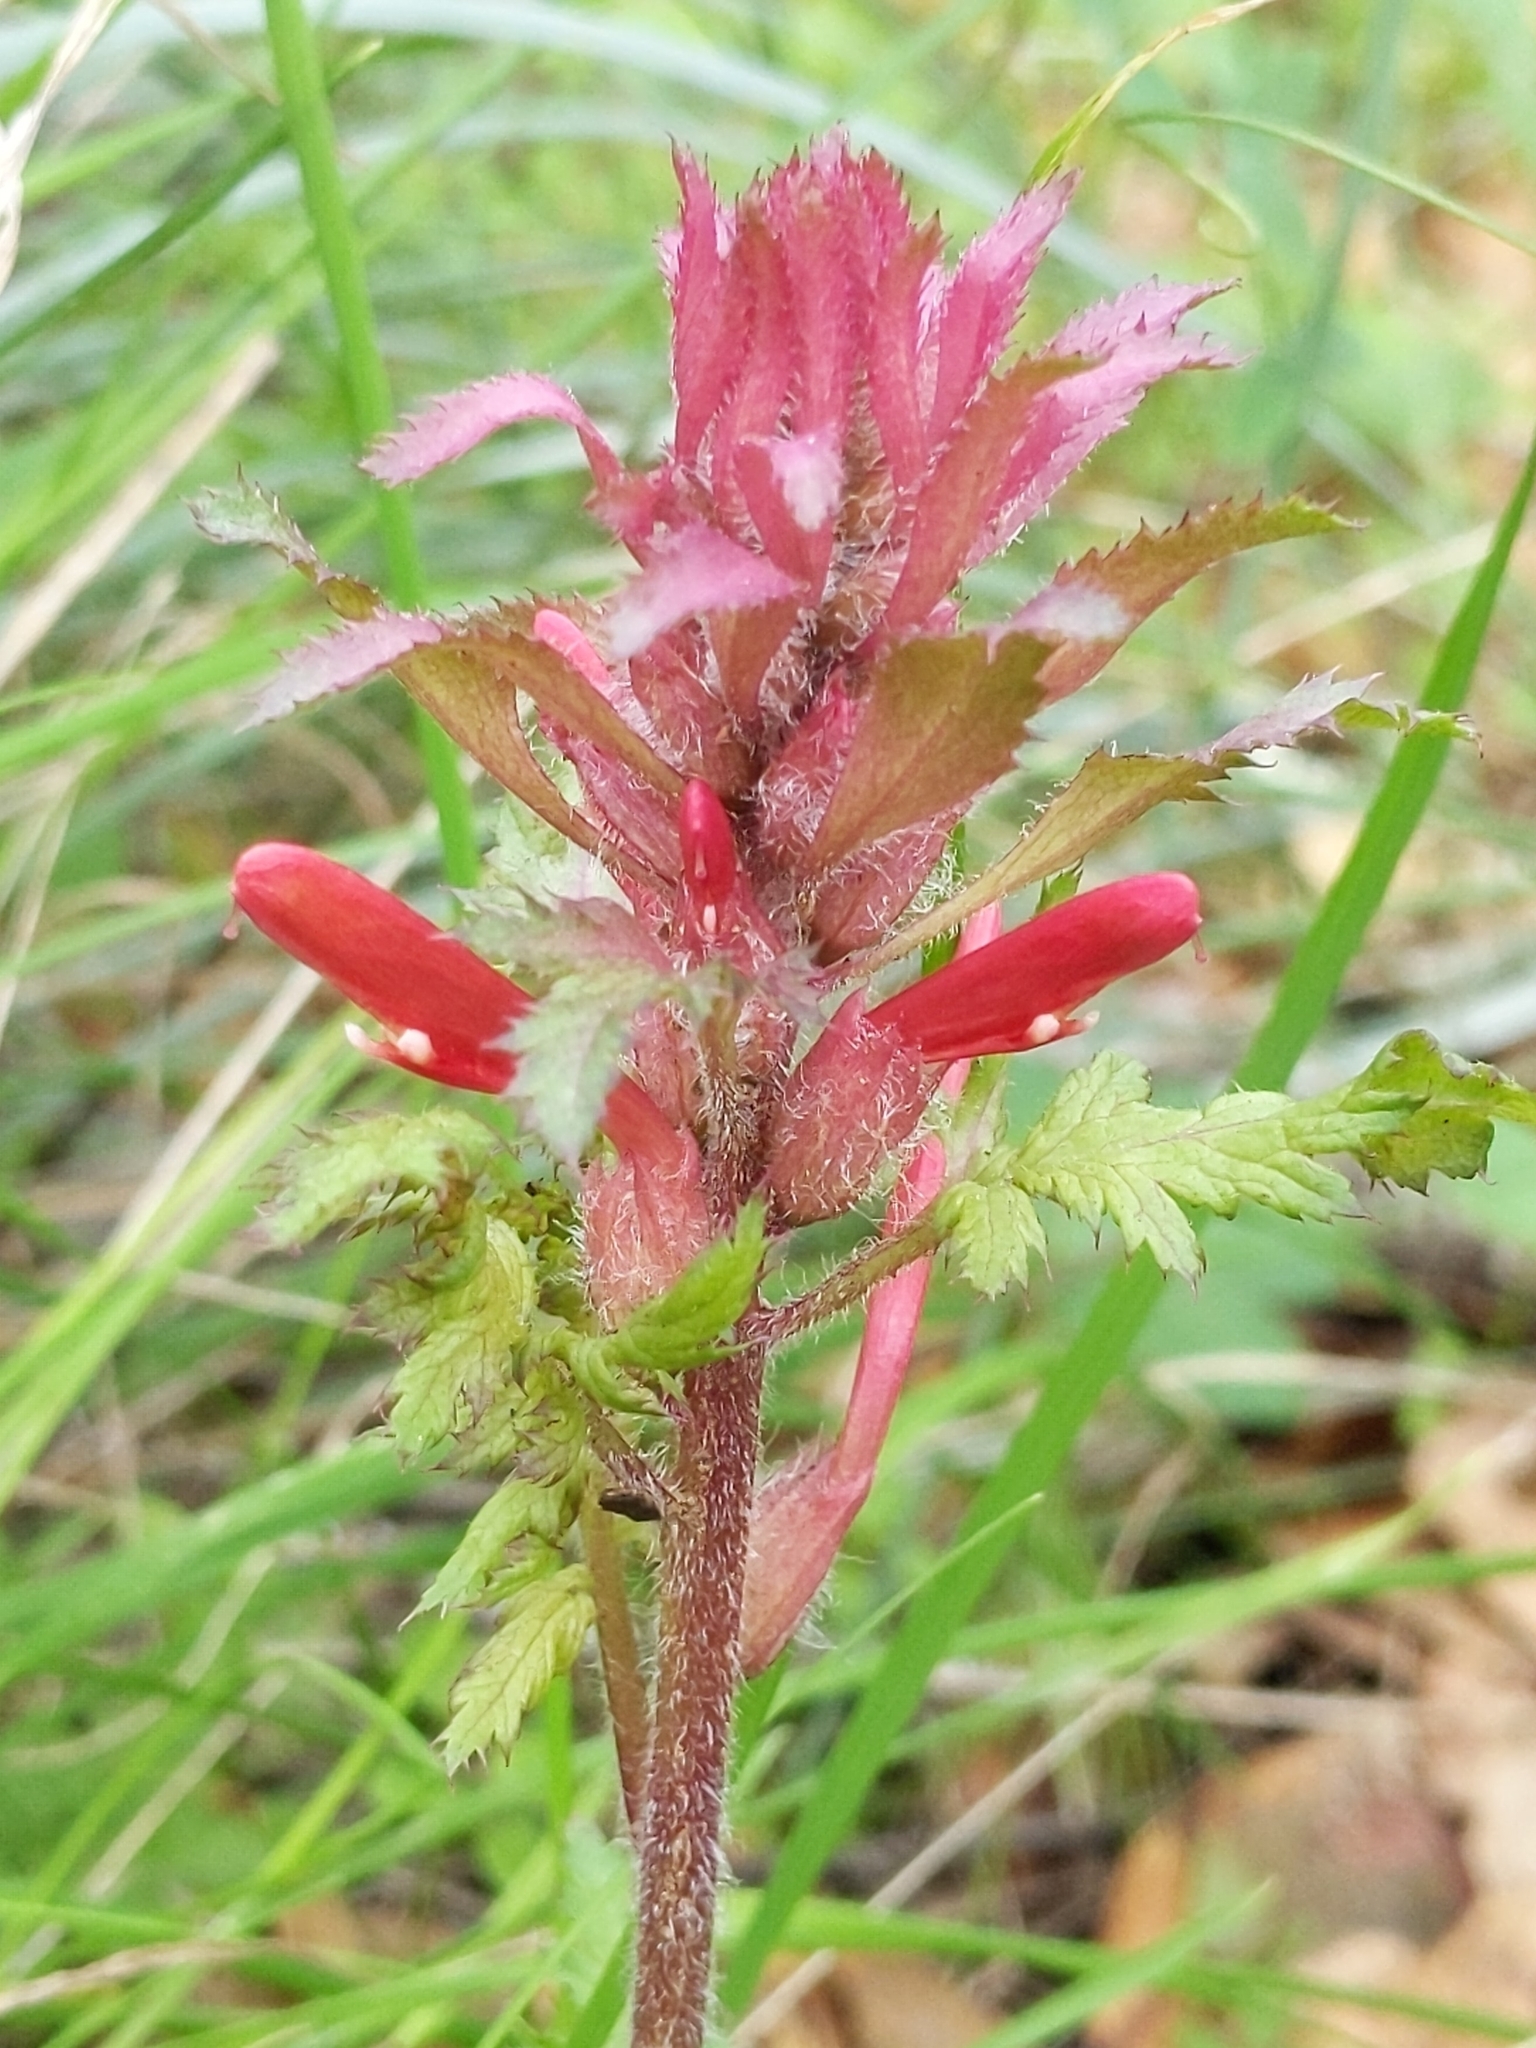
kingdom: Plantae
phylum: Tracheophyta
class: Magnoliopsida
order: Lamiales
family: Orobanchaceae
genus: Pedicularis
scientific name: Pedicularis densiflora
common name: Indian warrior
